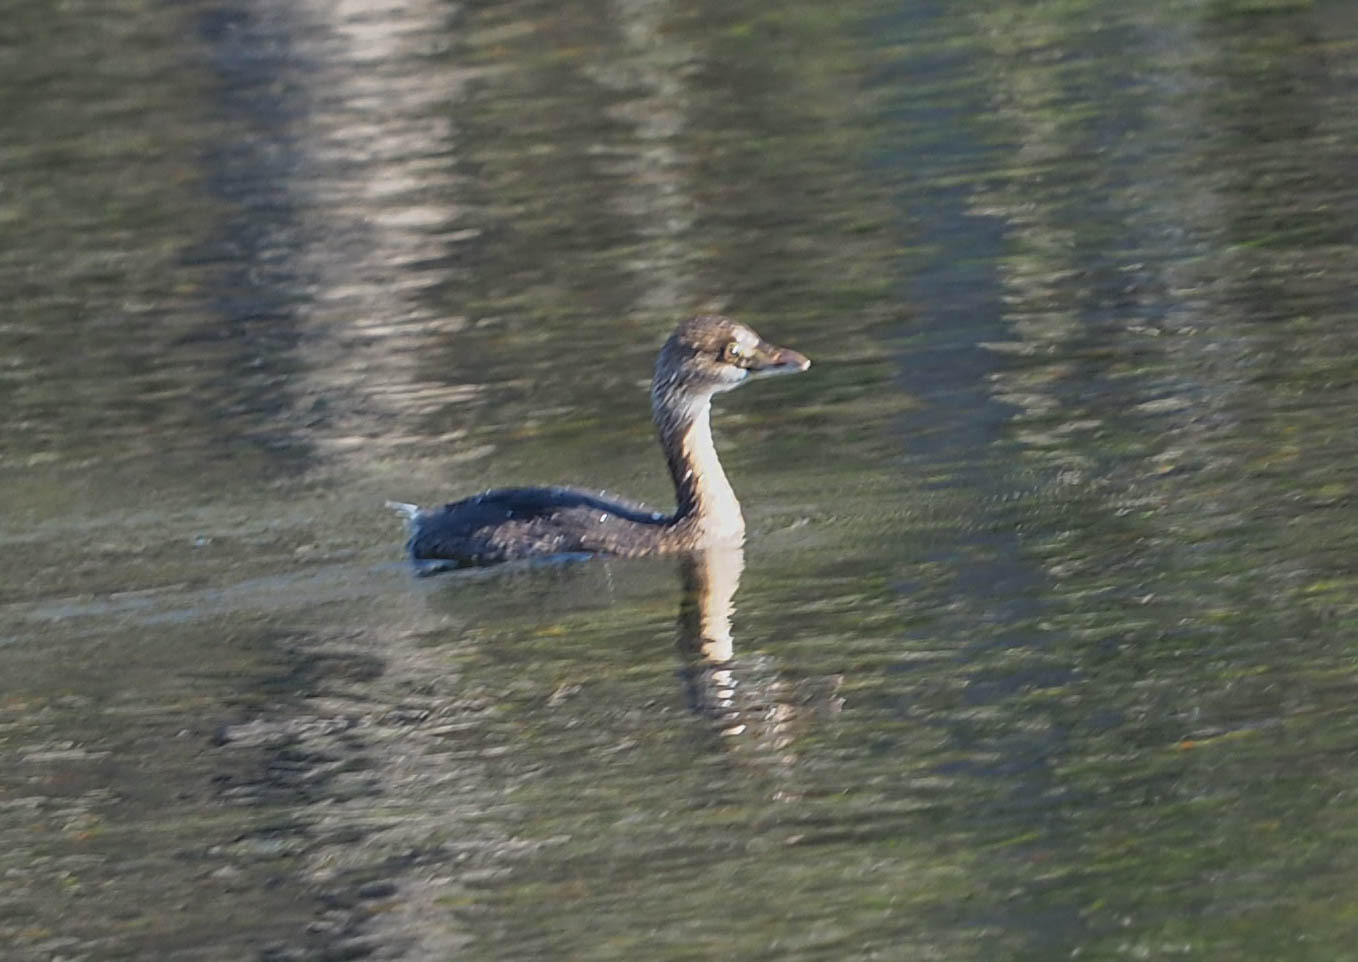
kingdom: Animalia
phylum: Chordata
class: Aves
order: Podicipediformes
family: Podicipedidae
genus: Podilymbus
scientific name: Podilymbus podiceps
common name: Pied-billed grebe
